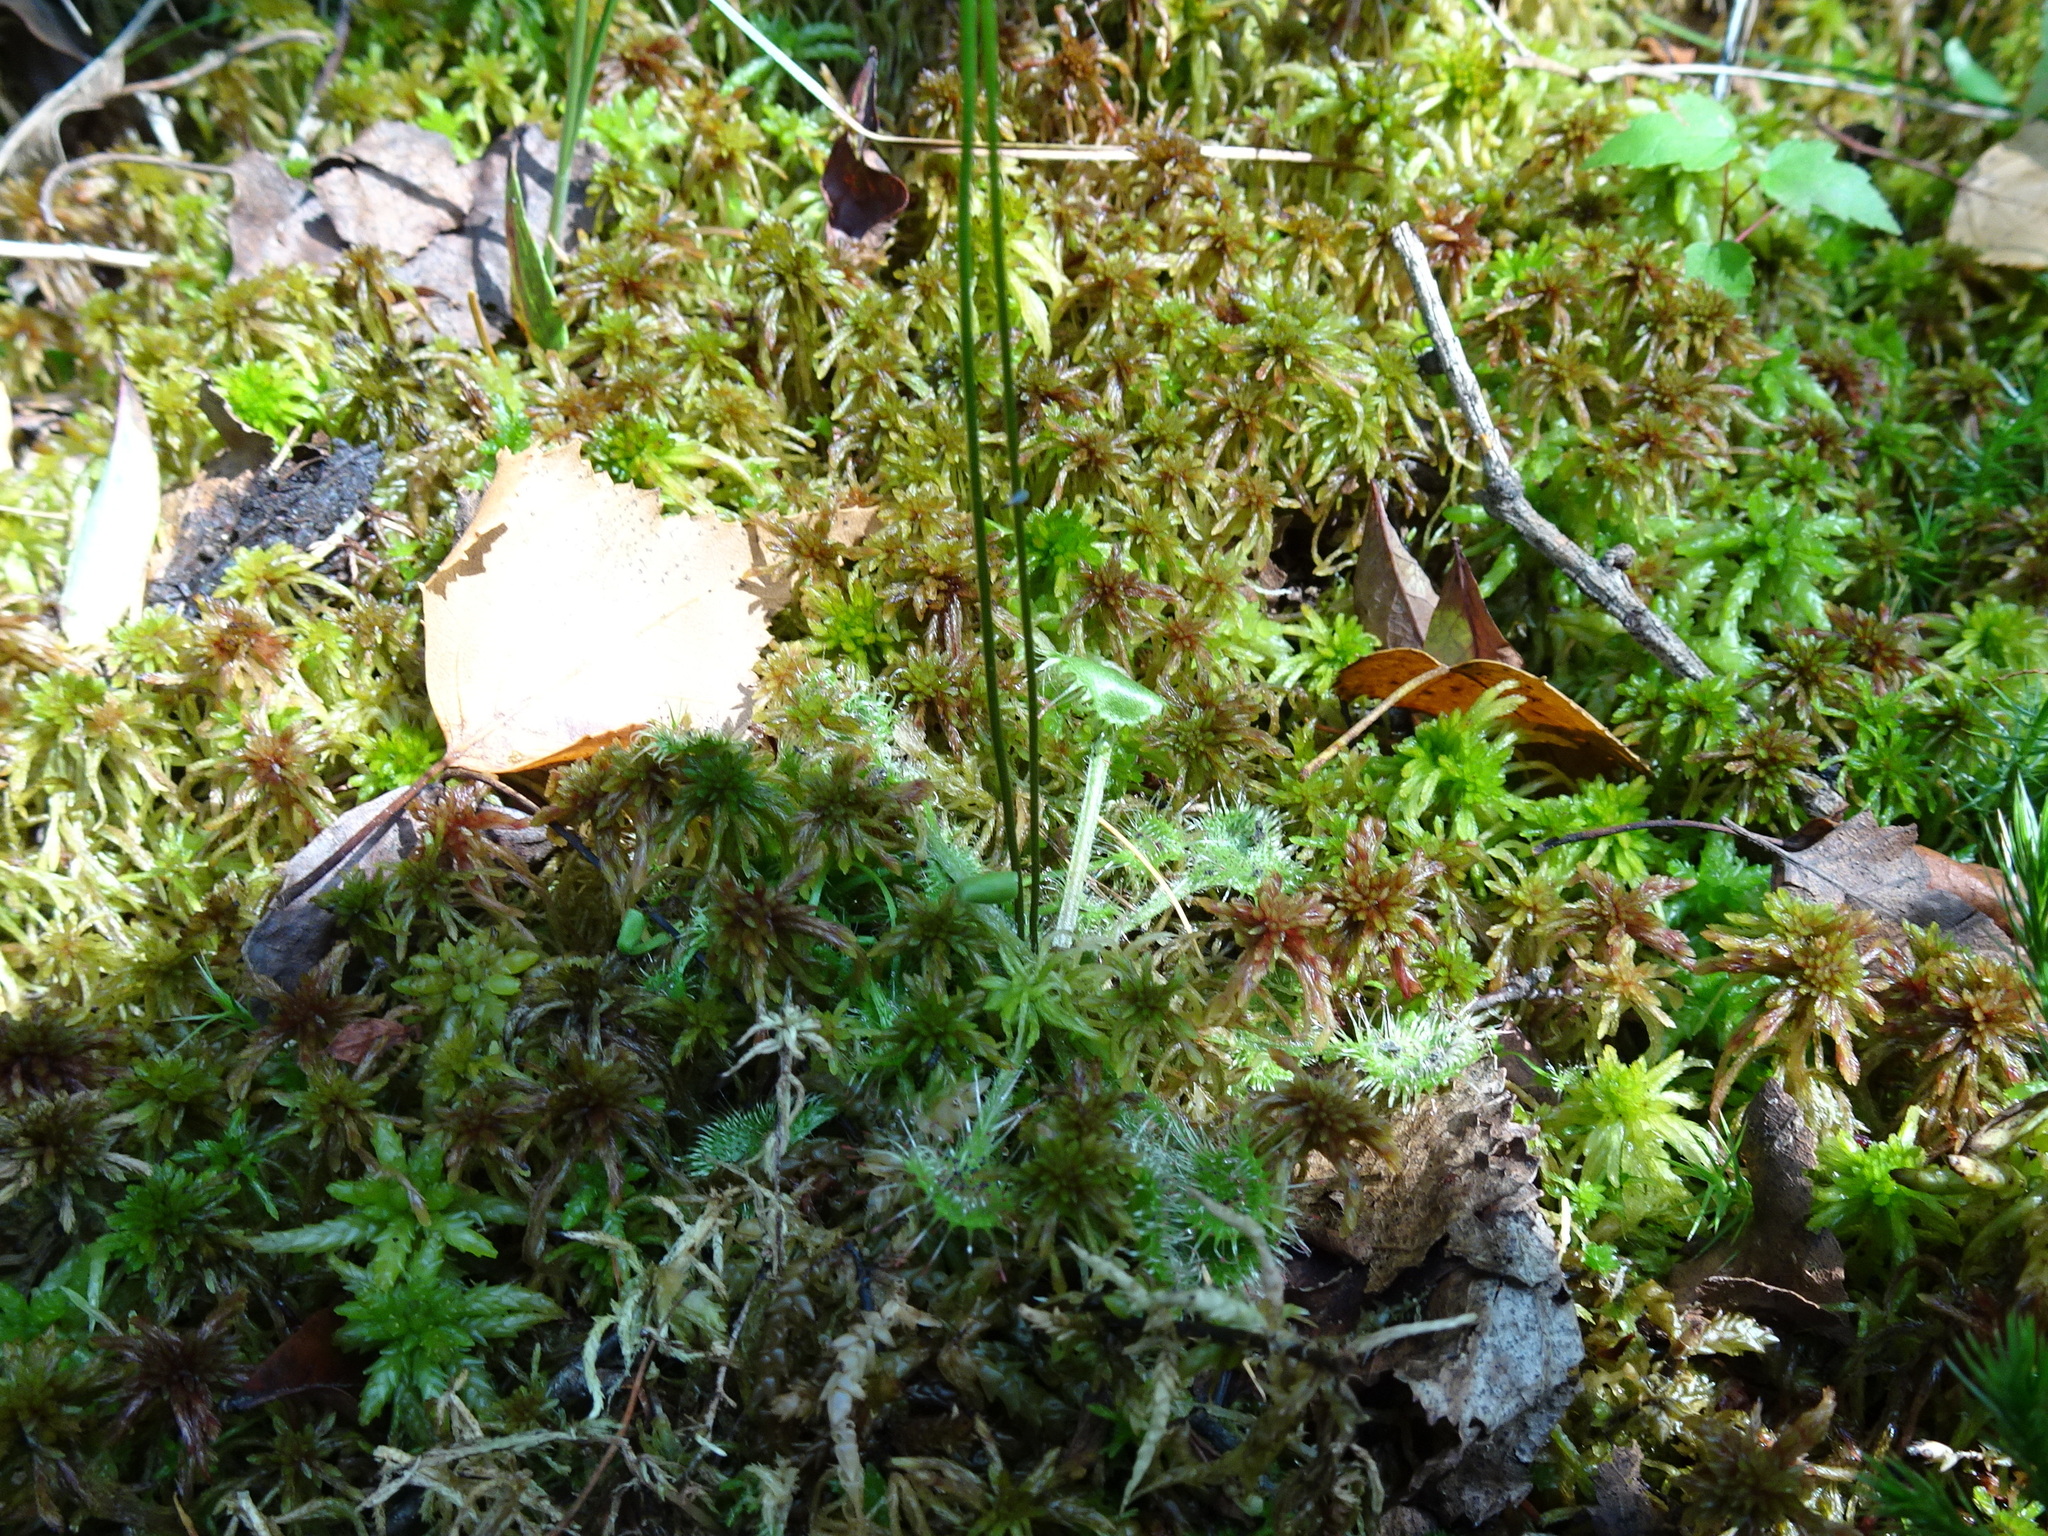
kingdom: Plantae
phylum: Tracheophyta
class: Magnoliopsida
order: Caryophyllales
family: Droseraceae
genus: Drosera
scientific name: Drosera rotundifolia
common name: Round-leaved sundew
